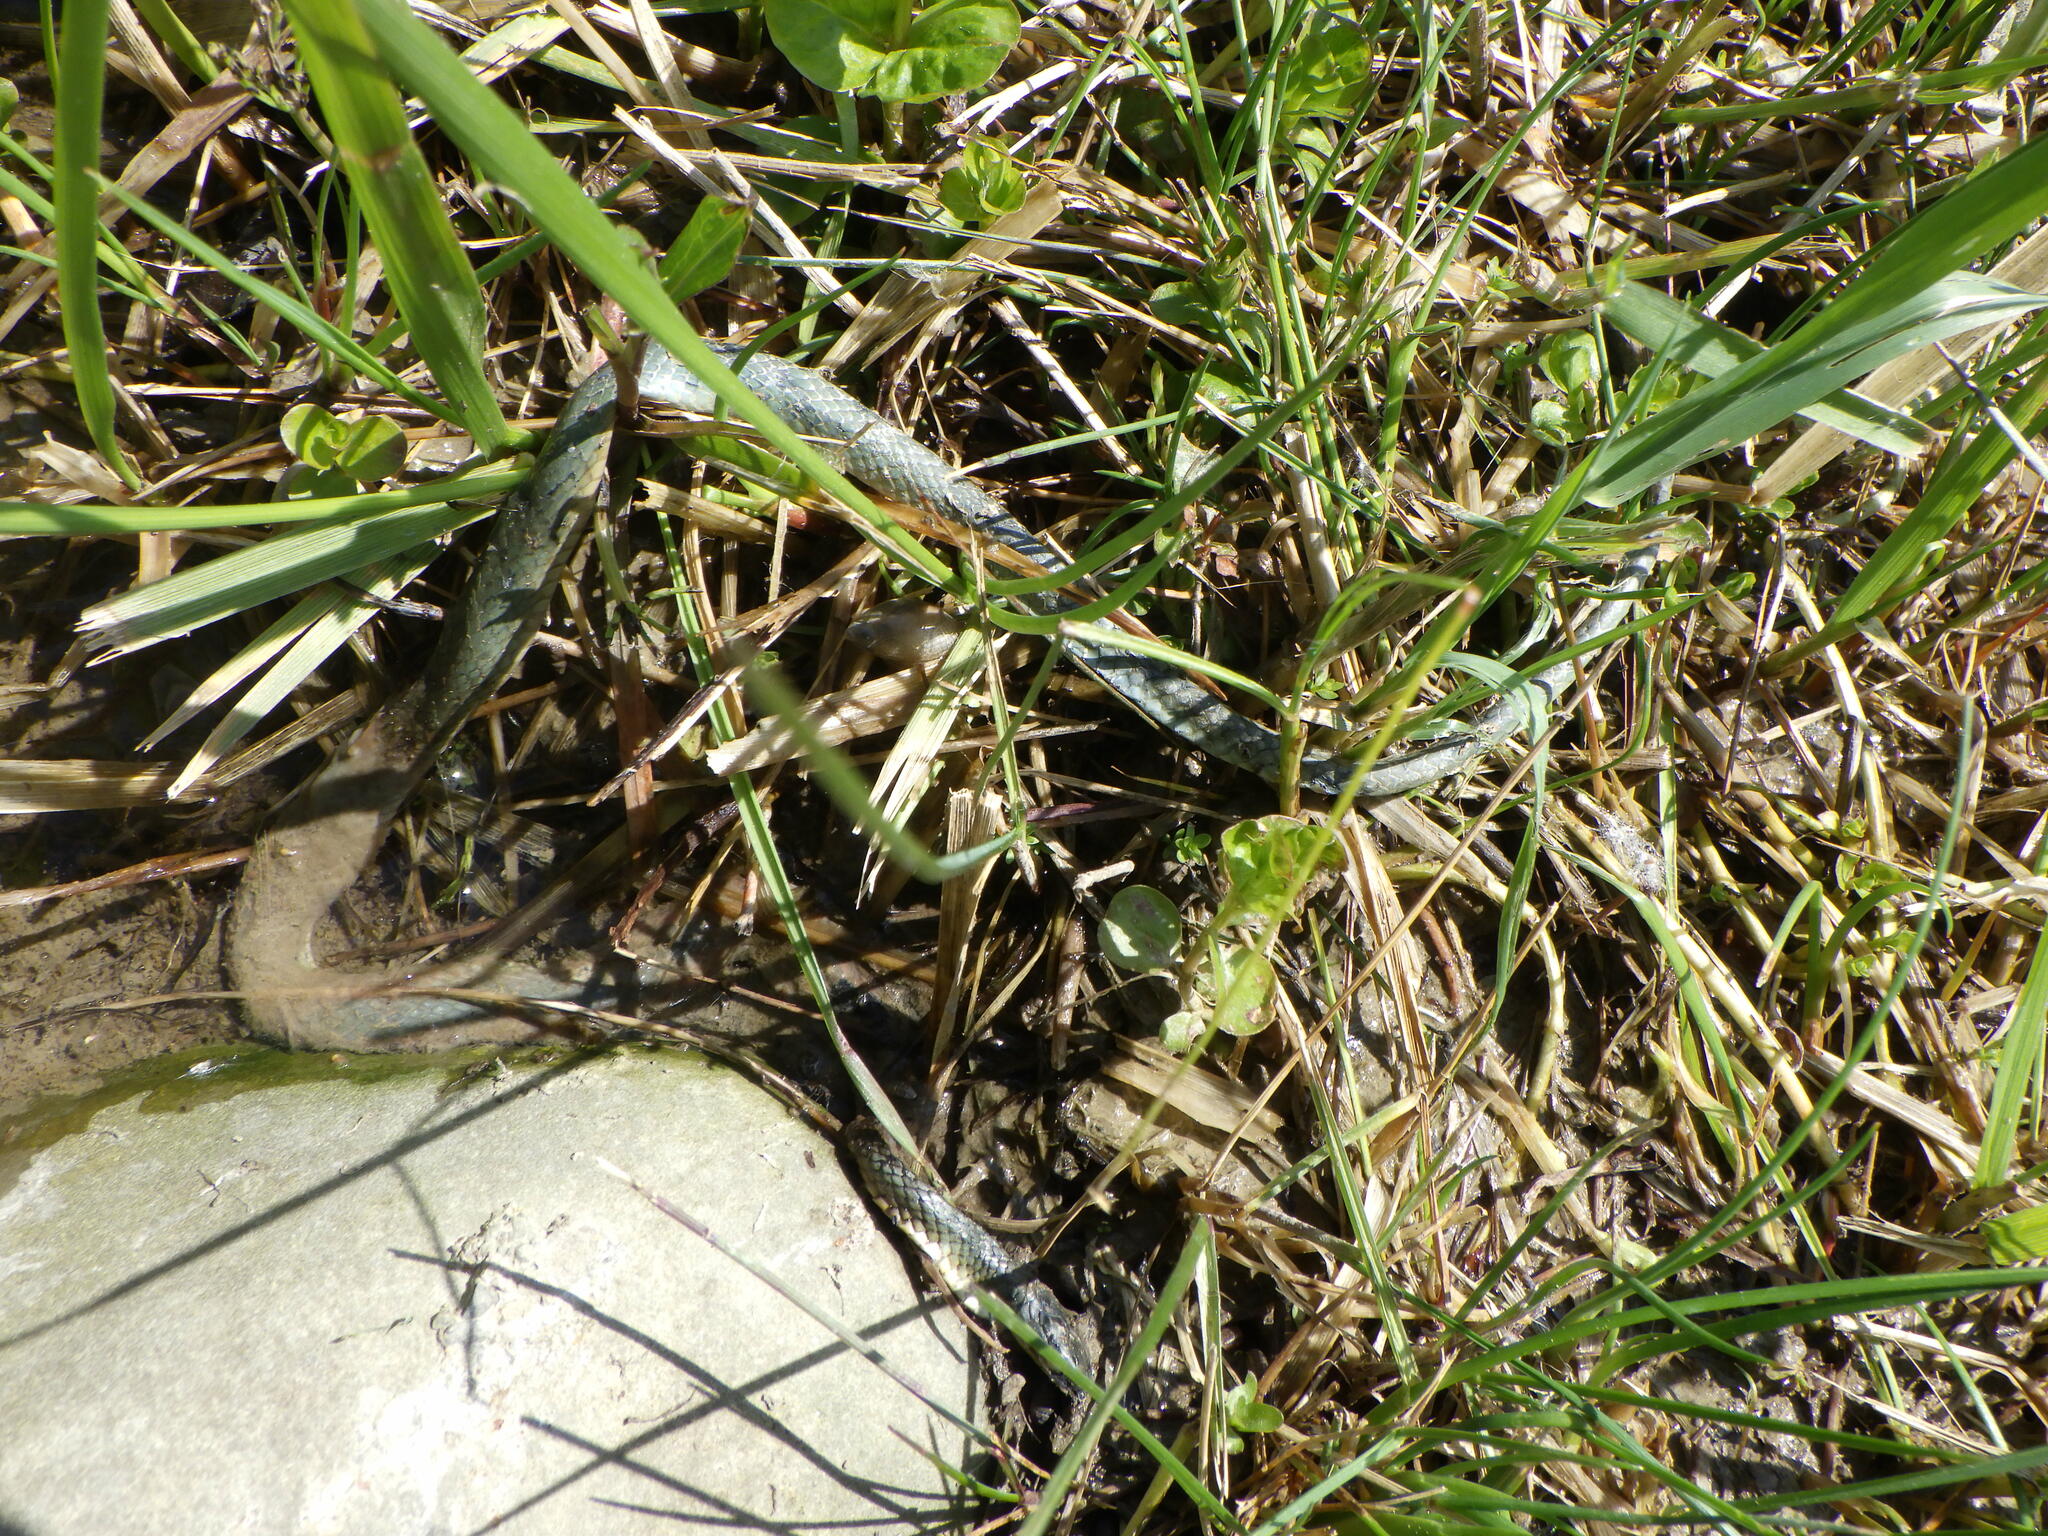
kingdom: Animalia
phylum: Chordata
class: Squamata
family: Colubridae
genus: Opheodrys
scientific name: Opheodrys vernalis
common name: Smooth green snake
